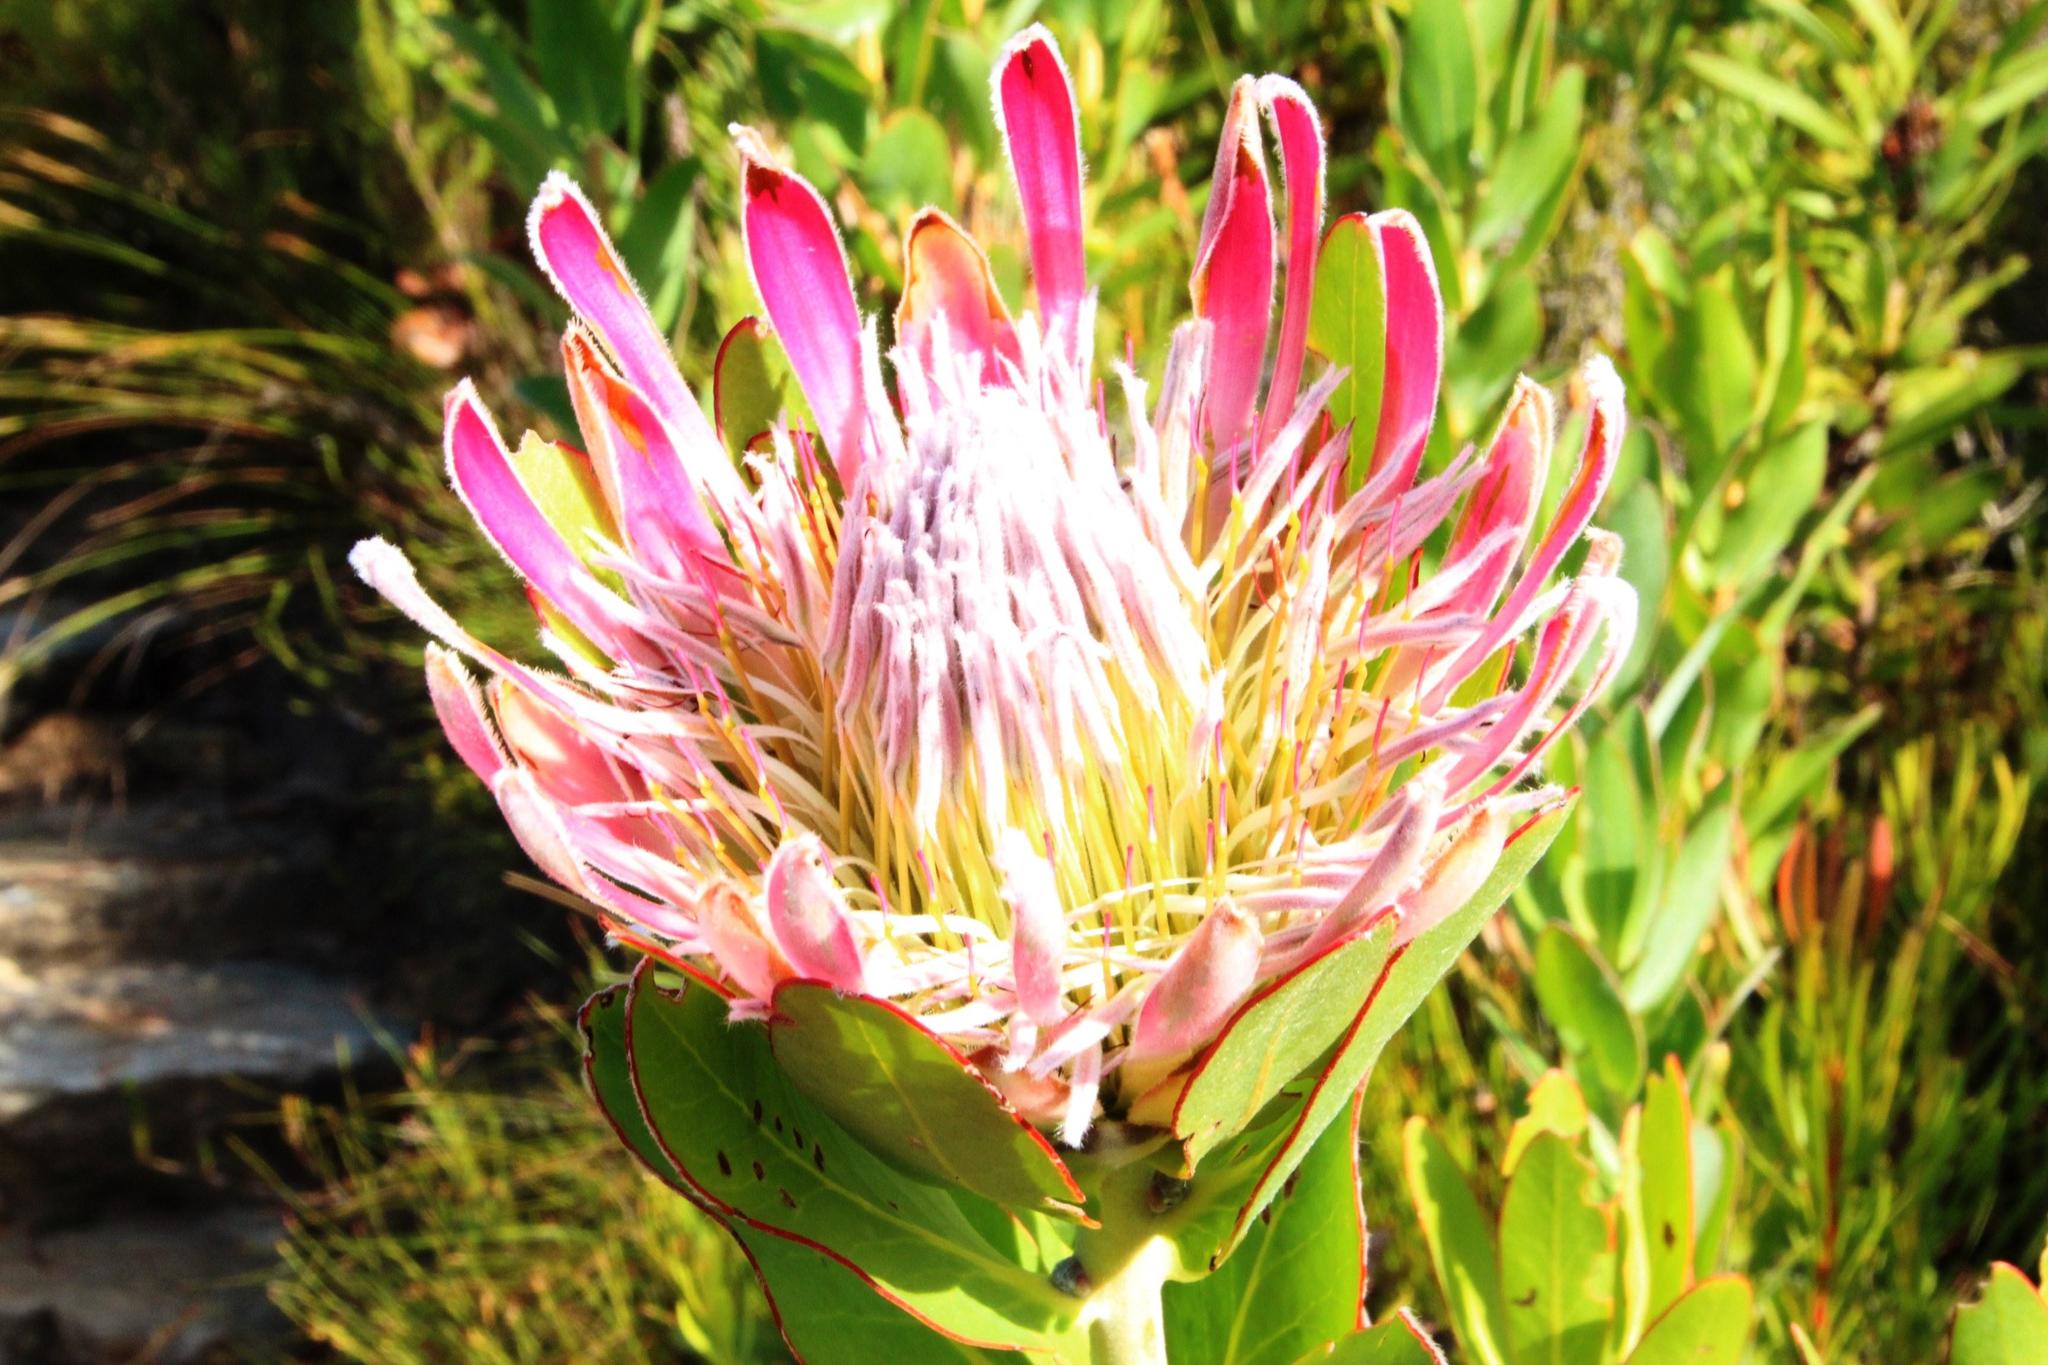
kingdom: Plantae
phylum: Tracheophyta
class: Magnoliopsida
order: Proteales
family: Proteaceae
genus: Protea
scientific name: Protea compacta
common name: Bot river protea
